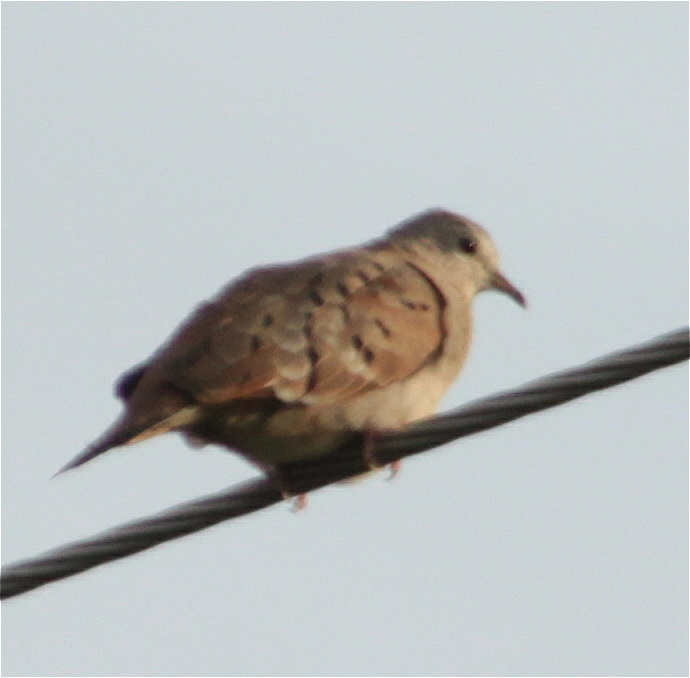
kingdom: Animalia
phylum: Chordata
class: Aves
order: Columbiformes
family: Columbidae
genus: Columbina
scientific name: Columbina talpacoti
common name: Ruddy ground dove
